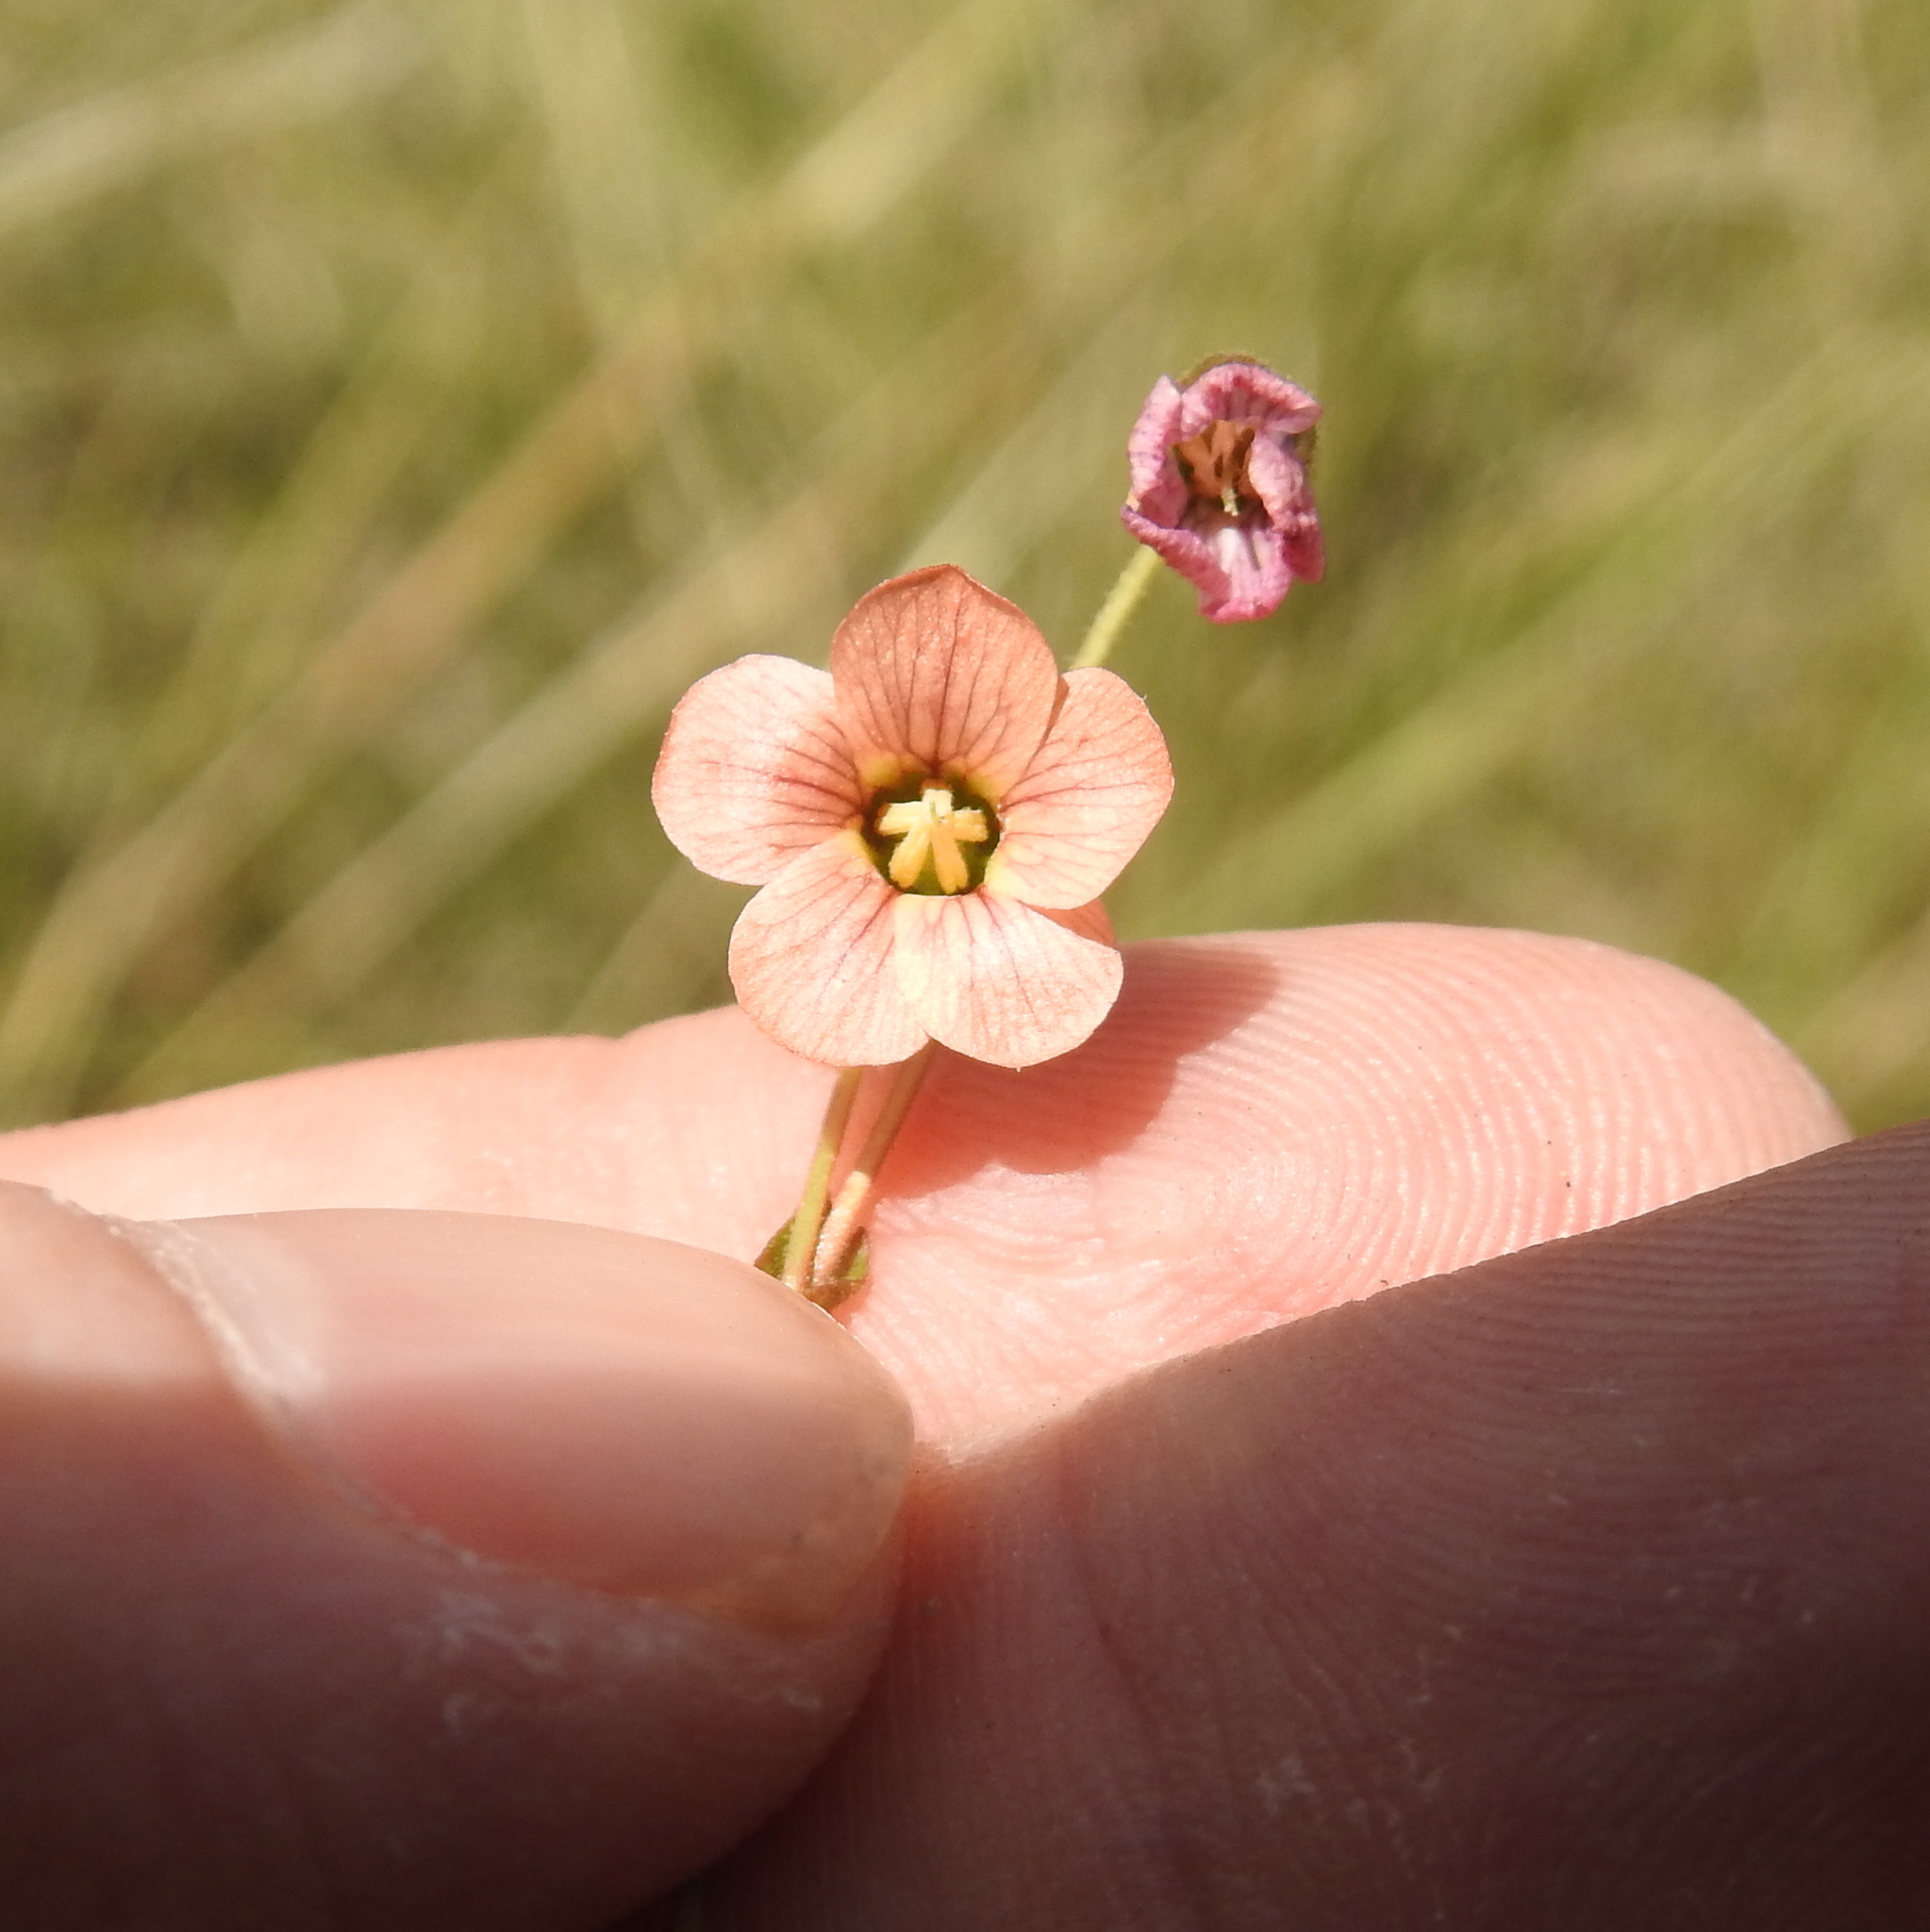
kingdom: Plantae
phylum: Tracheophyta
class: Magnoliopsida
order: Malvales
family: Malvaceae
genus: Hermannia
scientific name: Hermannia depressa
